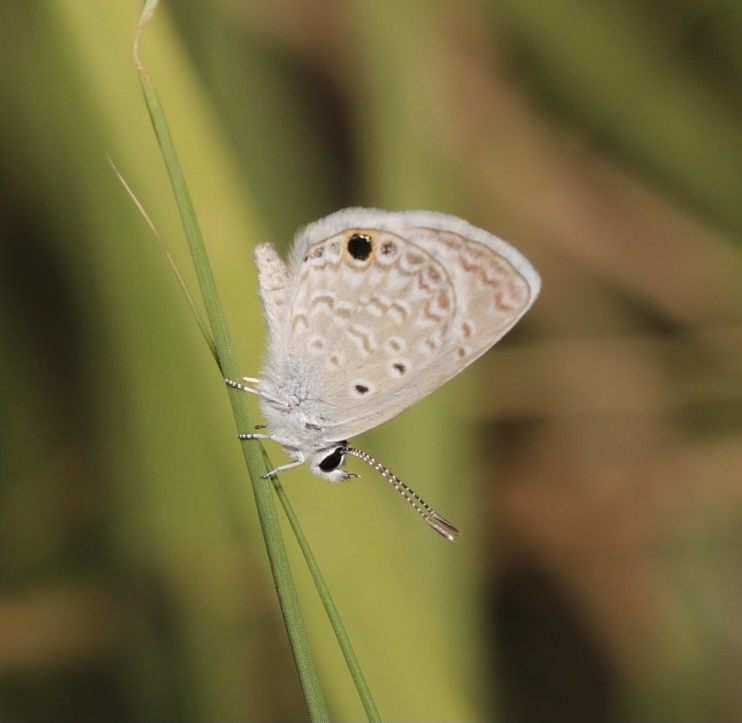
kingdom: Animalia
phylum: Arthropoda
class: Insecta
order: Lepidoptera
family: Lycaenidae
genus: Hemiargus
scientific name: Hemiargus ceraunus
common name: Ceraunus blue
